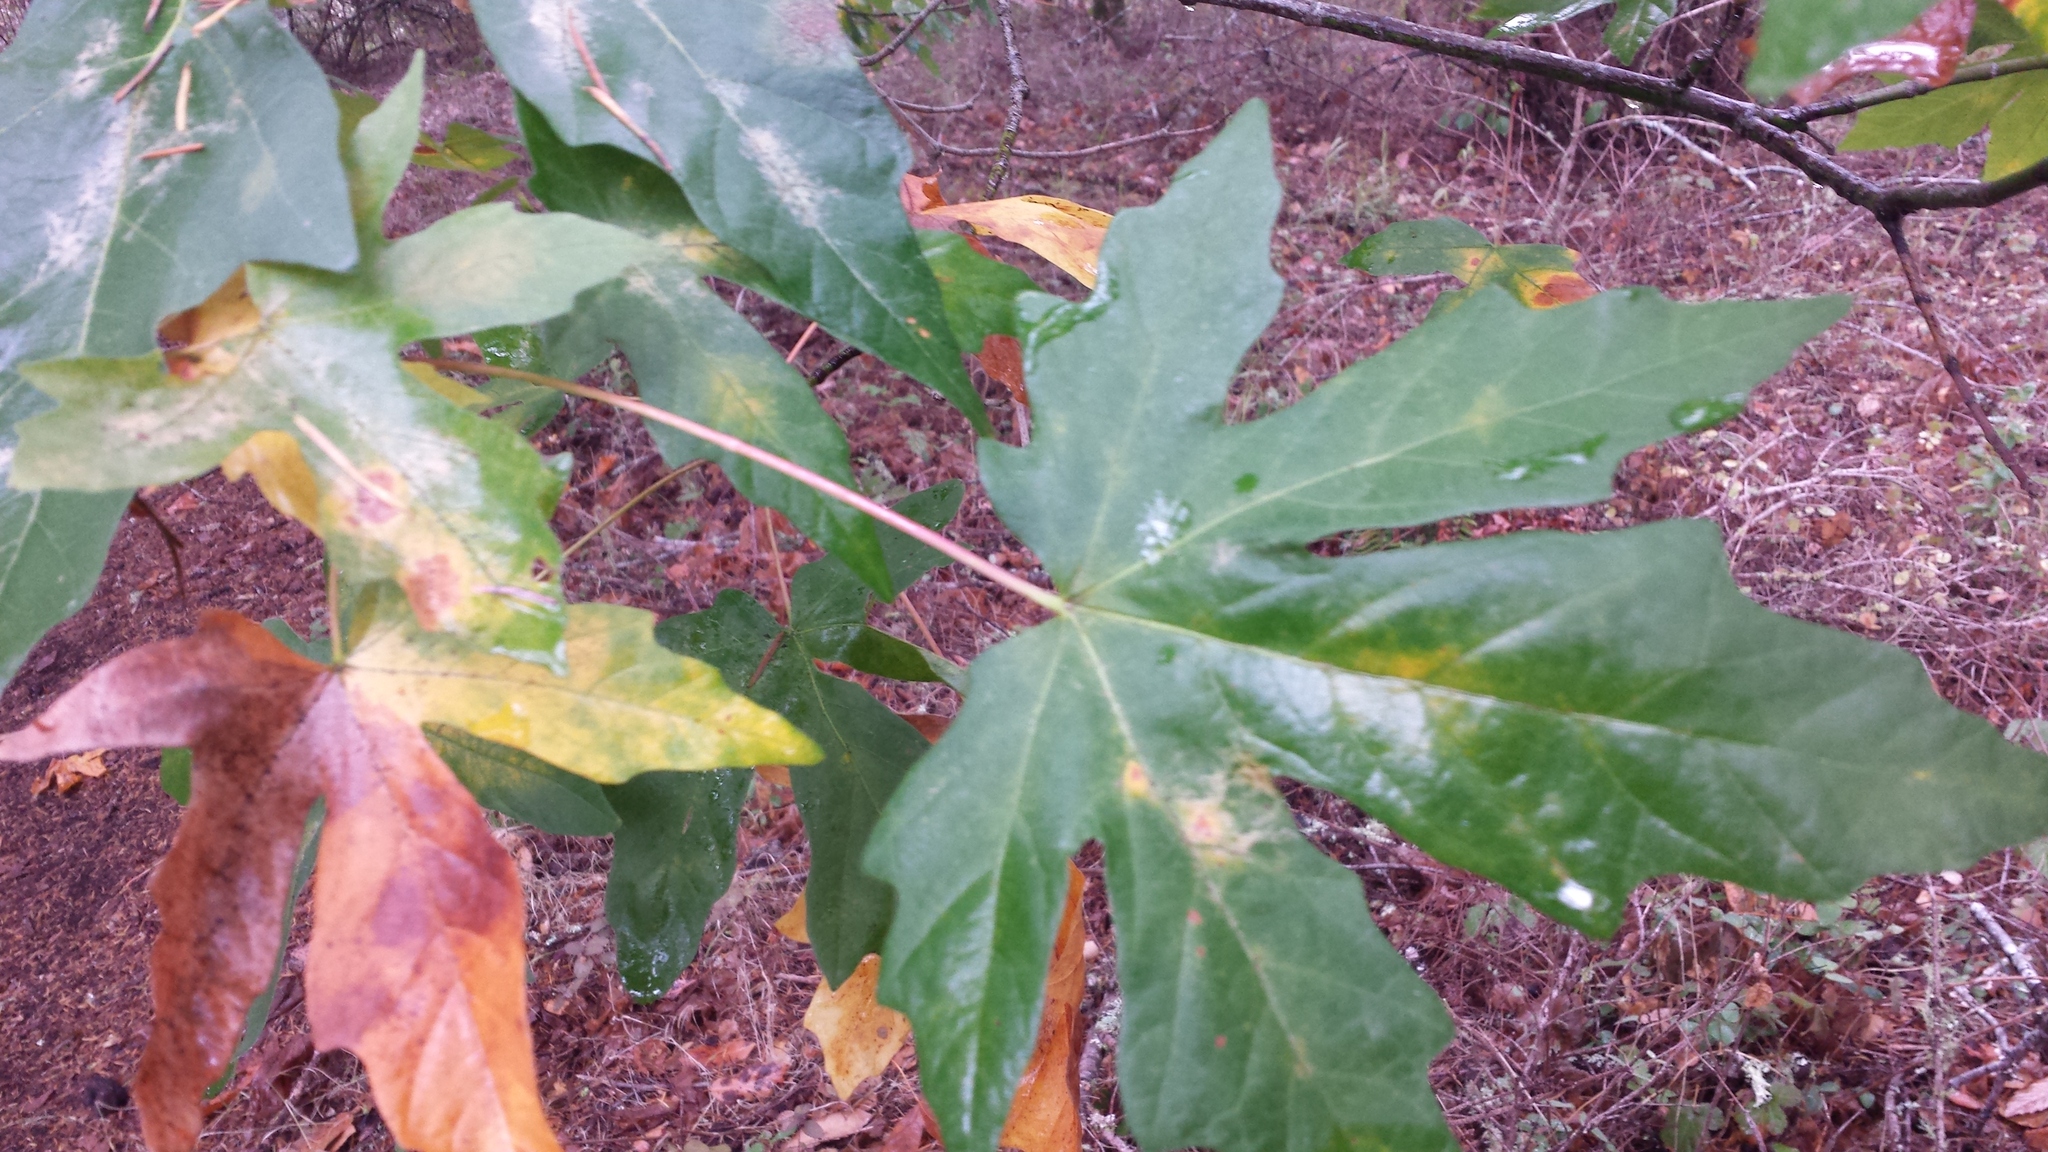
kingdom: Plantae
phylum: Tracheophyta
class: Magnoliopsida
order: Sapindales
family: Sapindaceae
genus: Acer
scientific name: Acer macrophyllum
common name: Oregon maple
